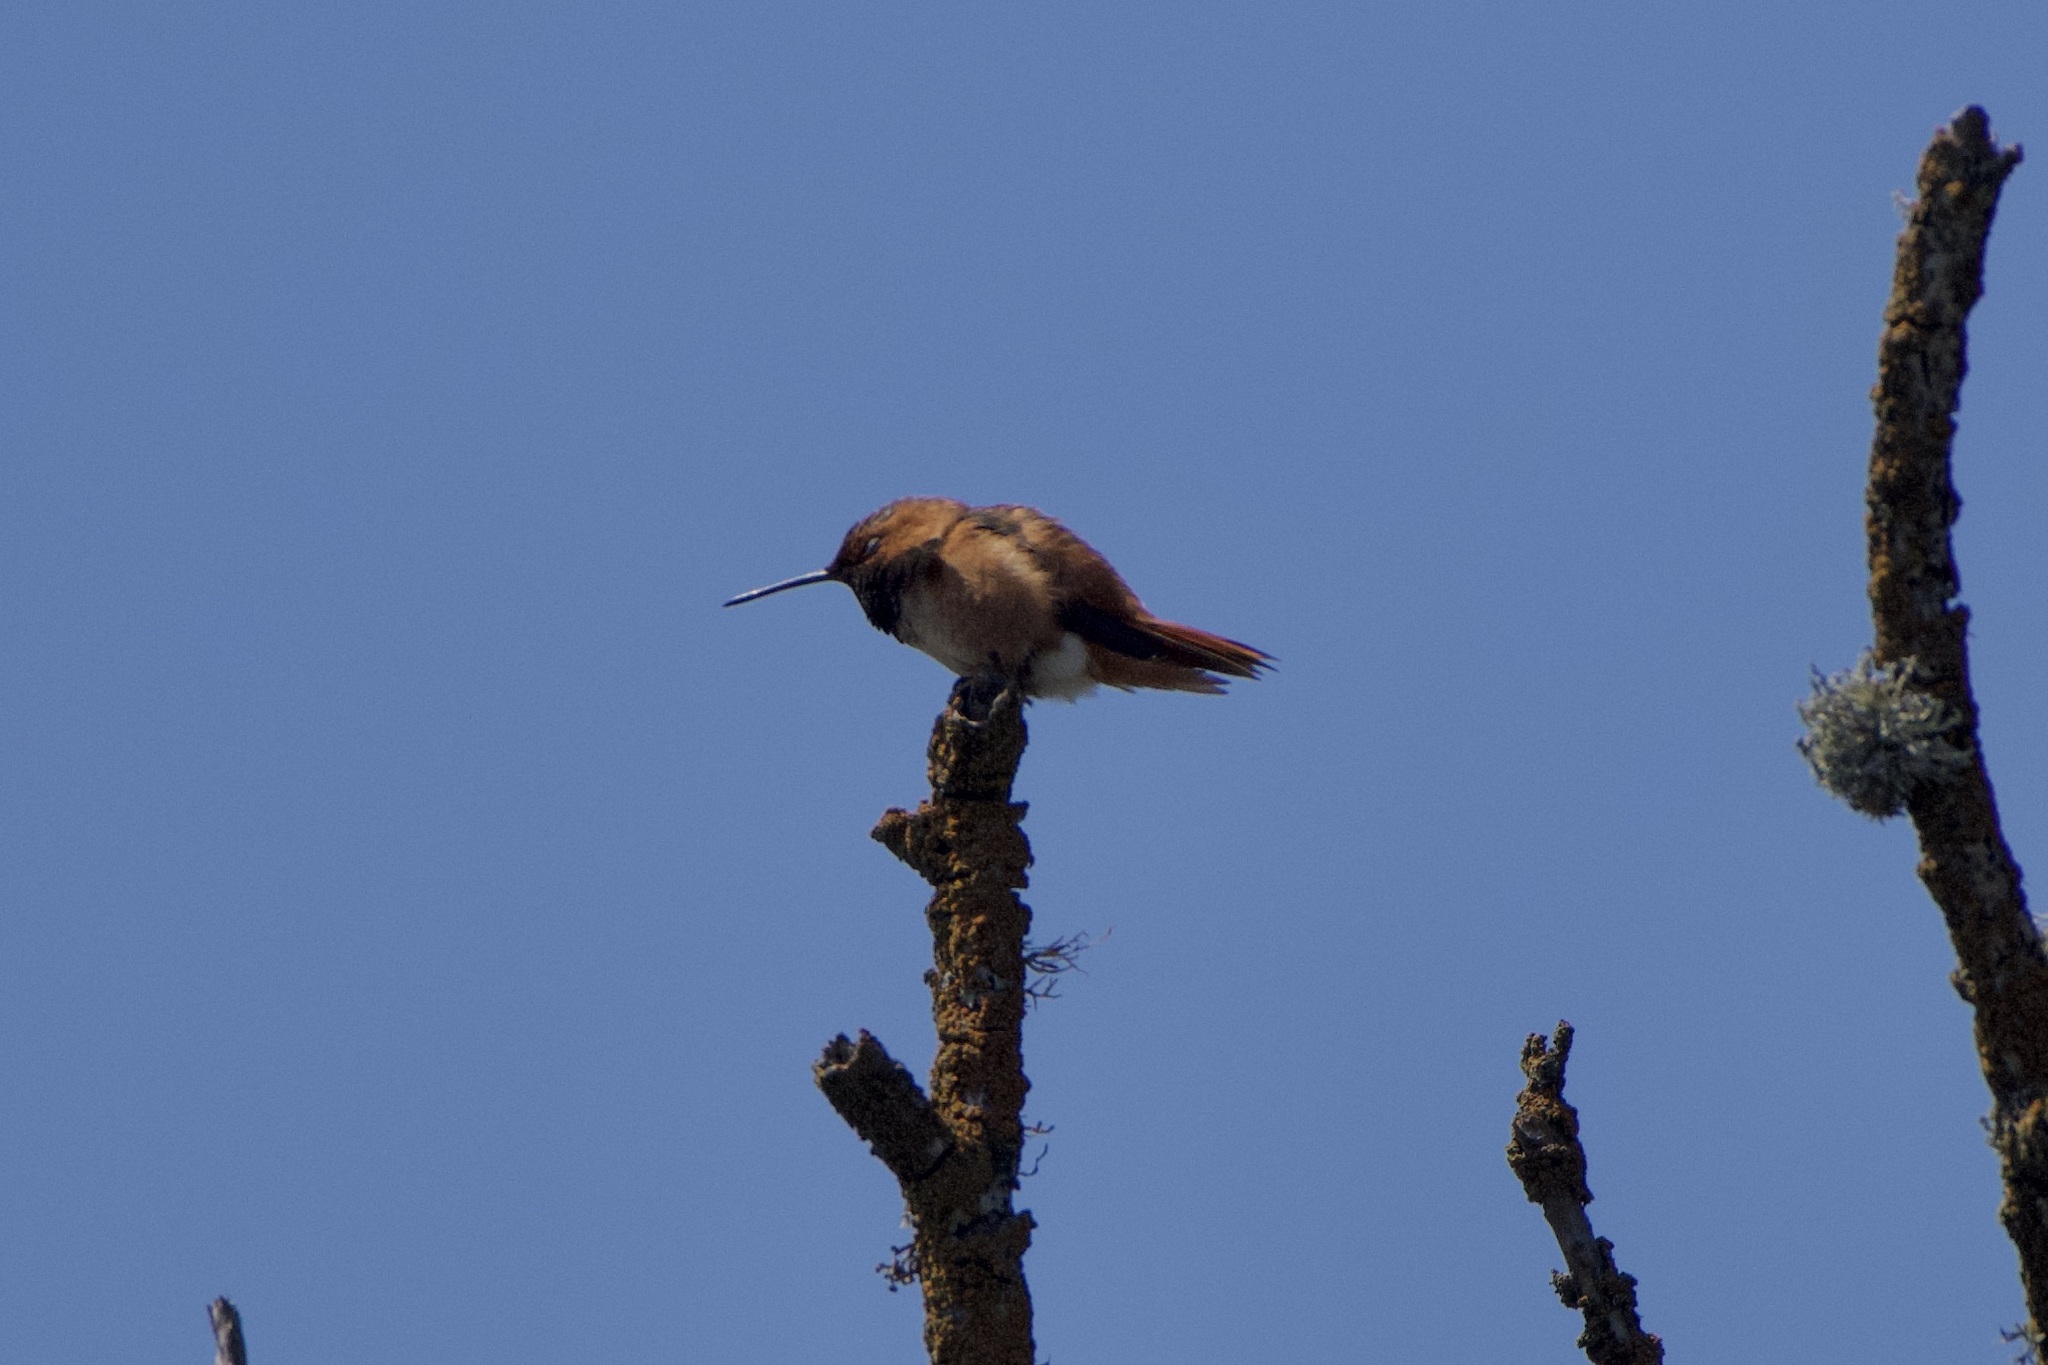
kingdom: Animalia
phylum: Chordata
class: Aves
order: Apodiformes
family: Trochilidae
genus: Selasphorus
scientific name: Selasphorus sasin
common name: Allen's hummingbird
